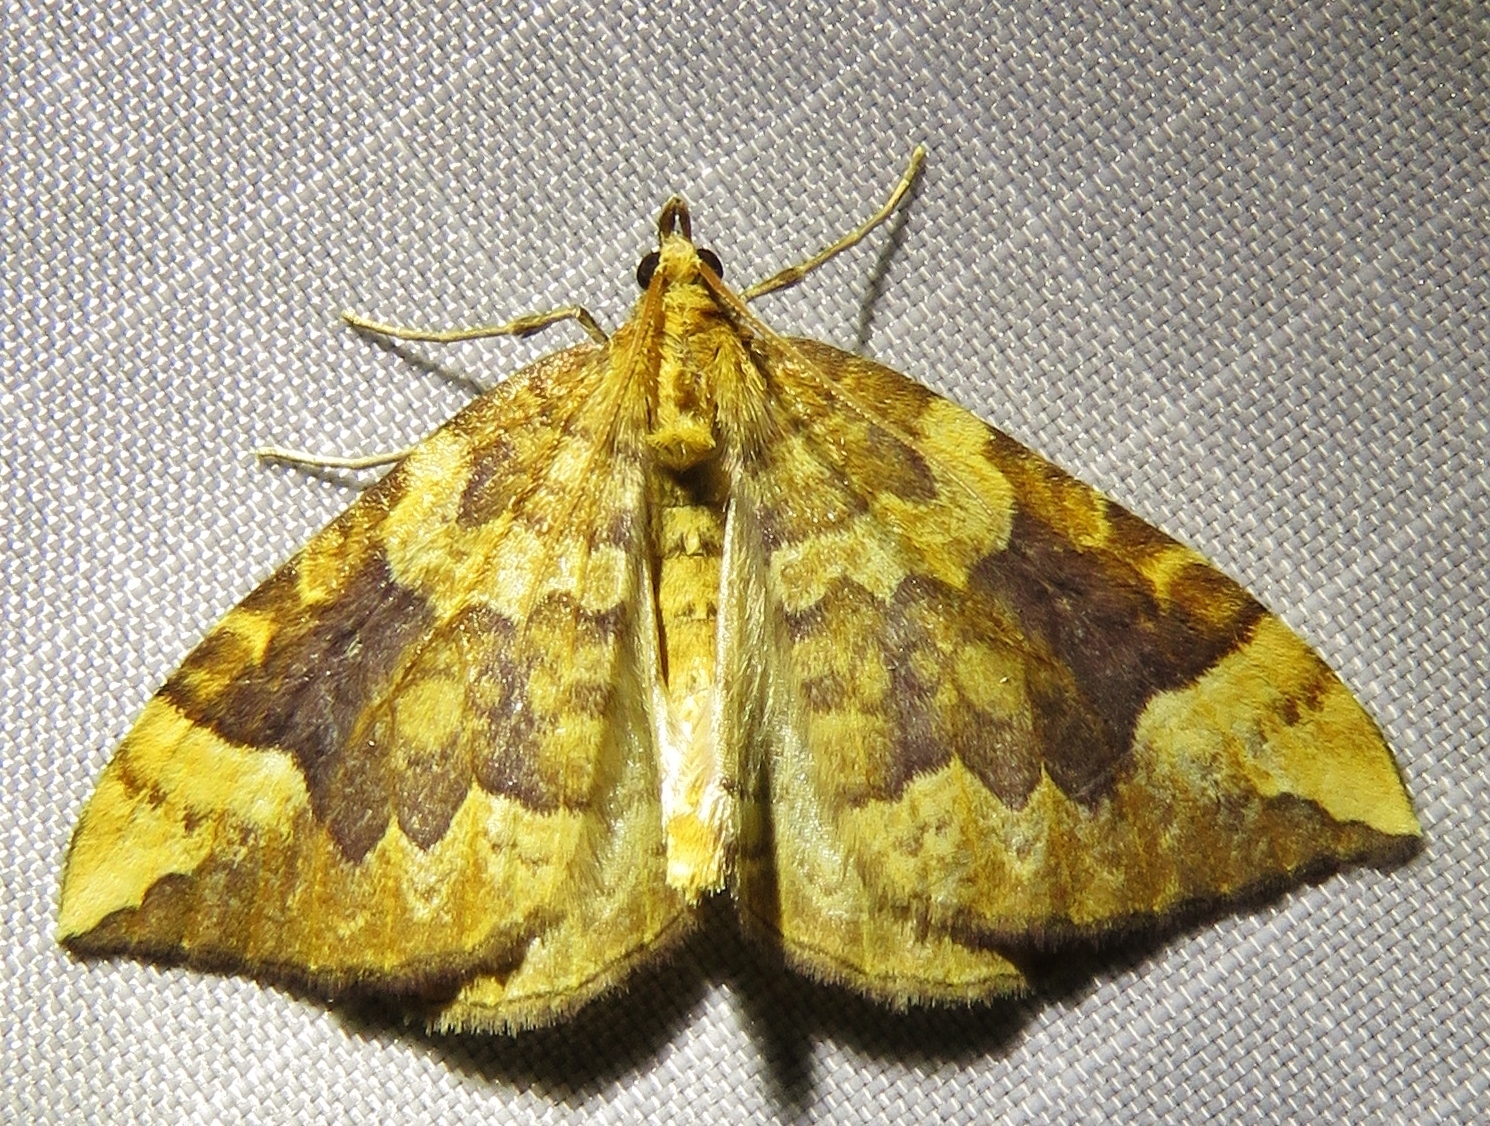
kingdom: Animalia
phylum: Arthropoda
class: Insecta
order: Lepidoptera
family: Geometridae
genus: Eulithis
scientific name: Eulithis populata
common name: Northern spinach
